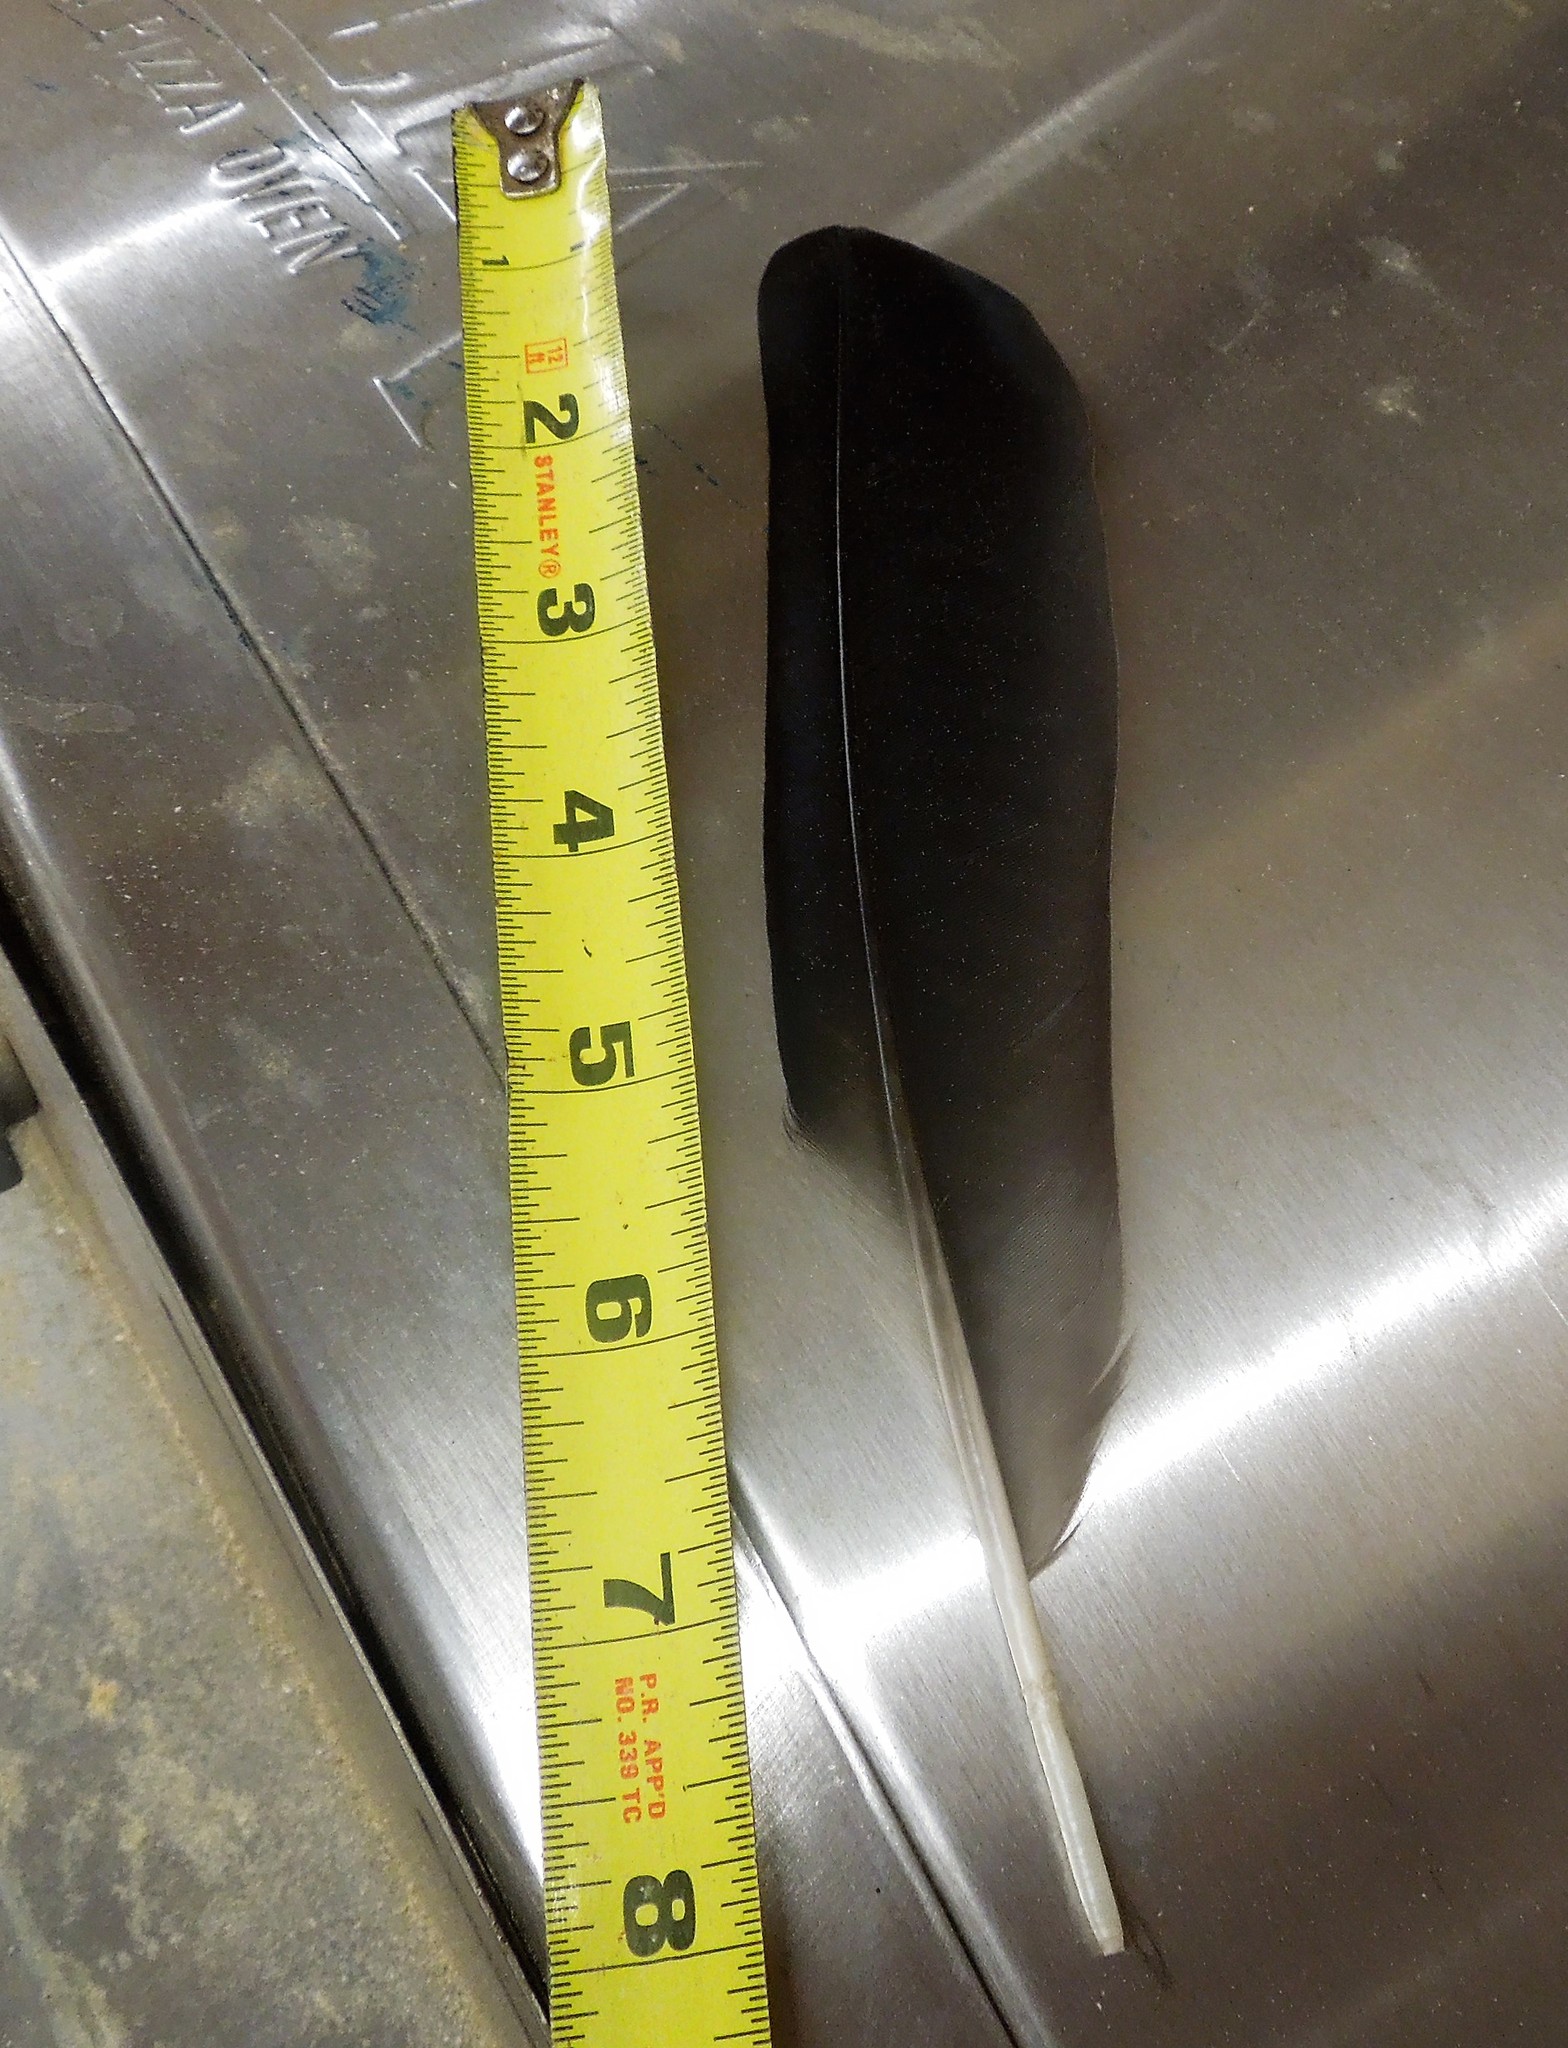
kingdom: Animalia
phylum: Chordata
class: Aves
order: Passeriformes
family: Corvidae
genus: Corvus
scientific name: Corvus brachyrhynchos
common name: American crow
